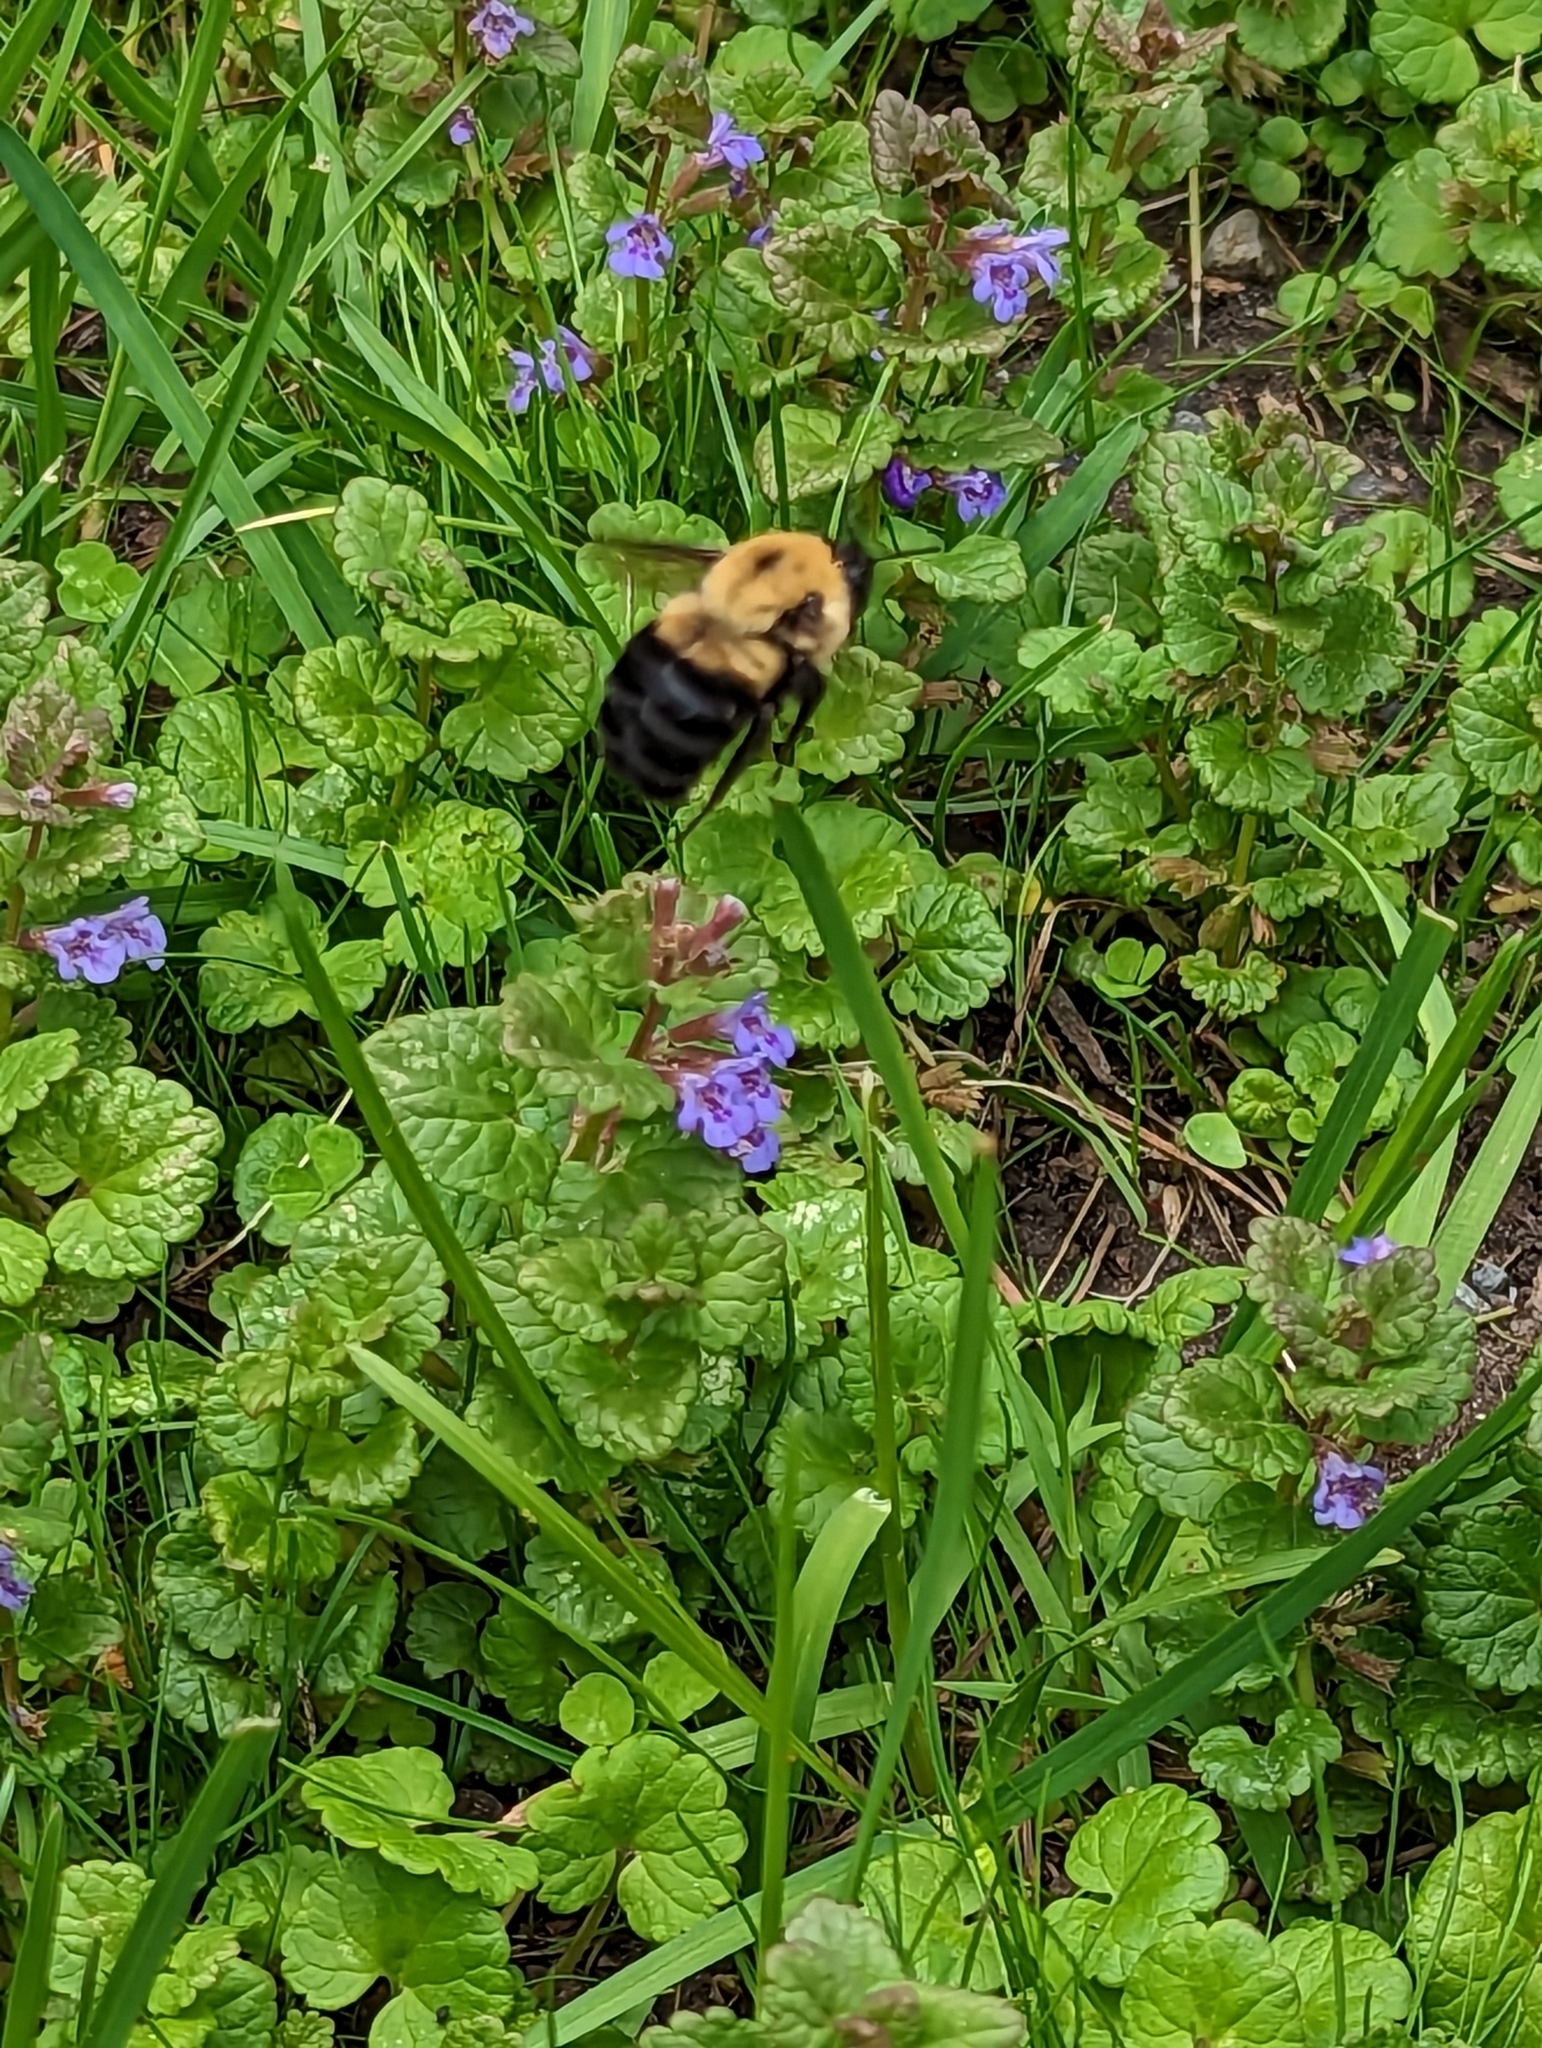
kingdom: Animalia
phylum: Arthropoda
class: Insecta
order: Hymenoptera
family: Apidae
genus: Bombus
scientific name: Bombus griseocollis
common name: Brown-belted bumble bee
